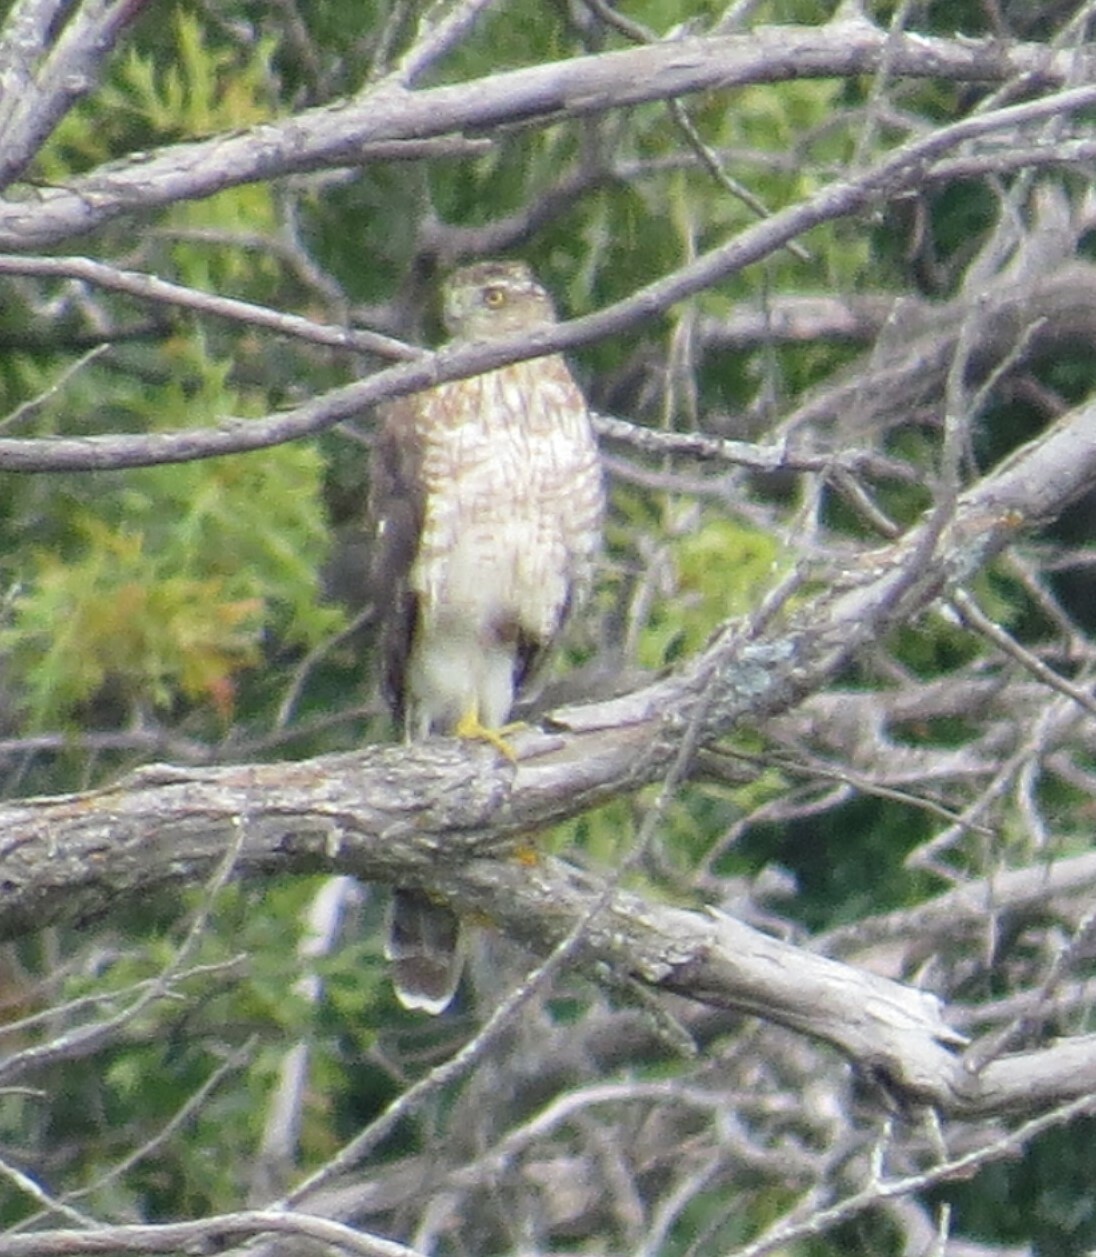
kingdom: Animalia
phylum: Chordata
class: Aves
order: Accipitriformes
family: Accipitridae
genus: Accipiter
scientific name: Accipiter cooperii
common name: Cooper's hawk
